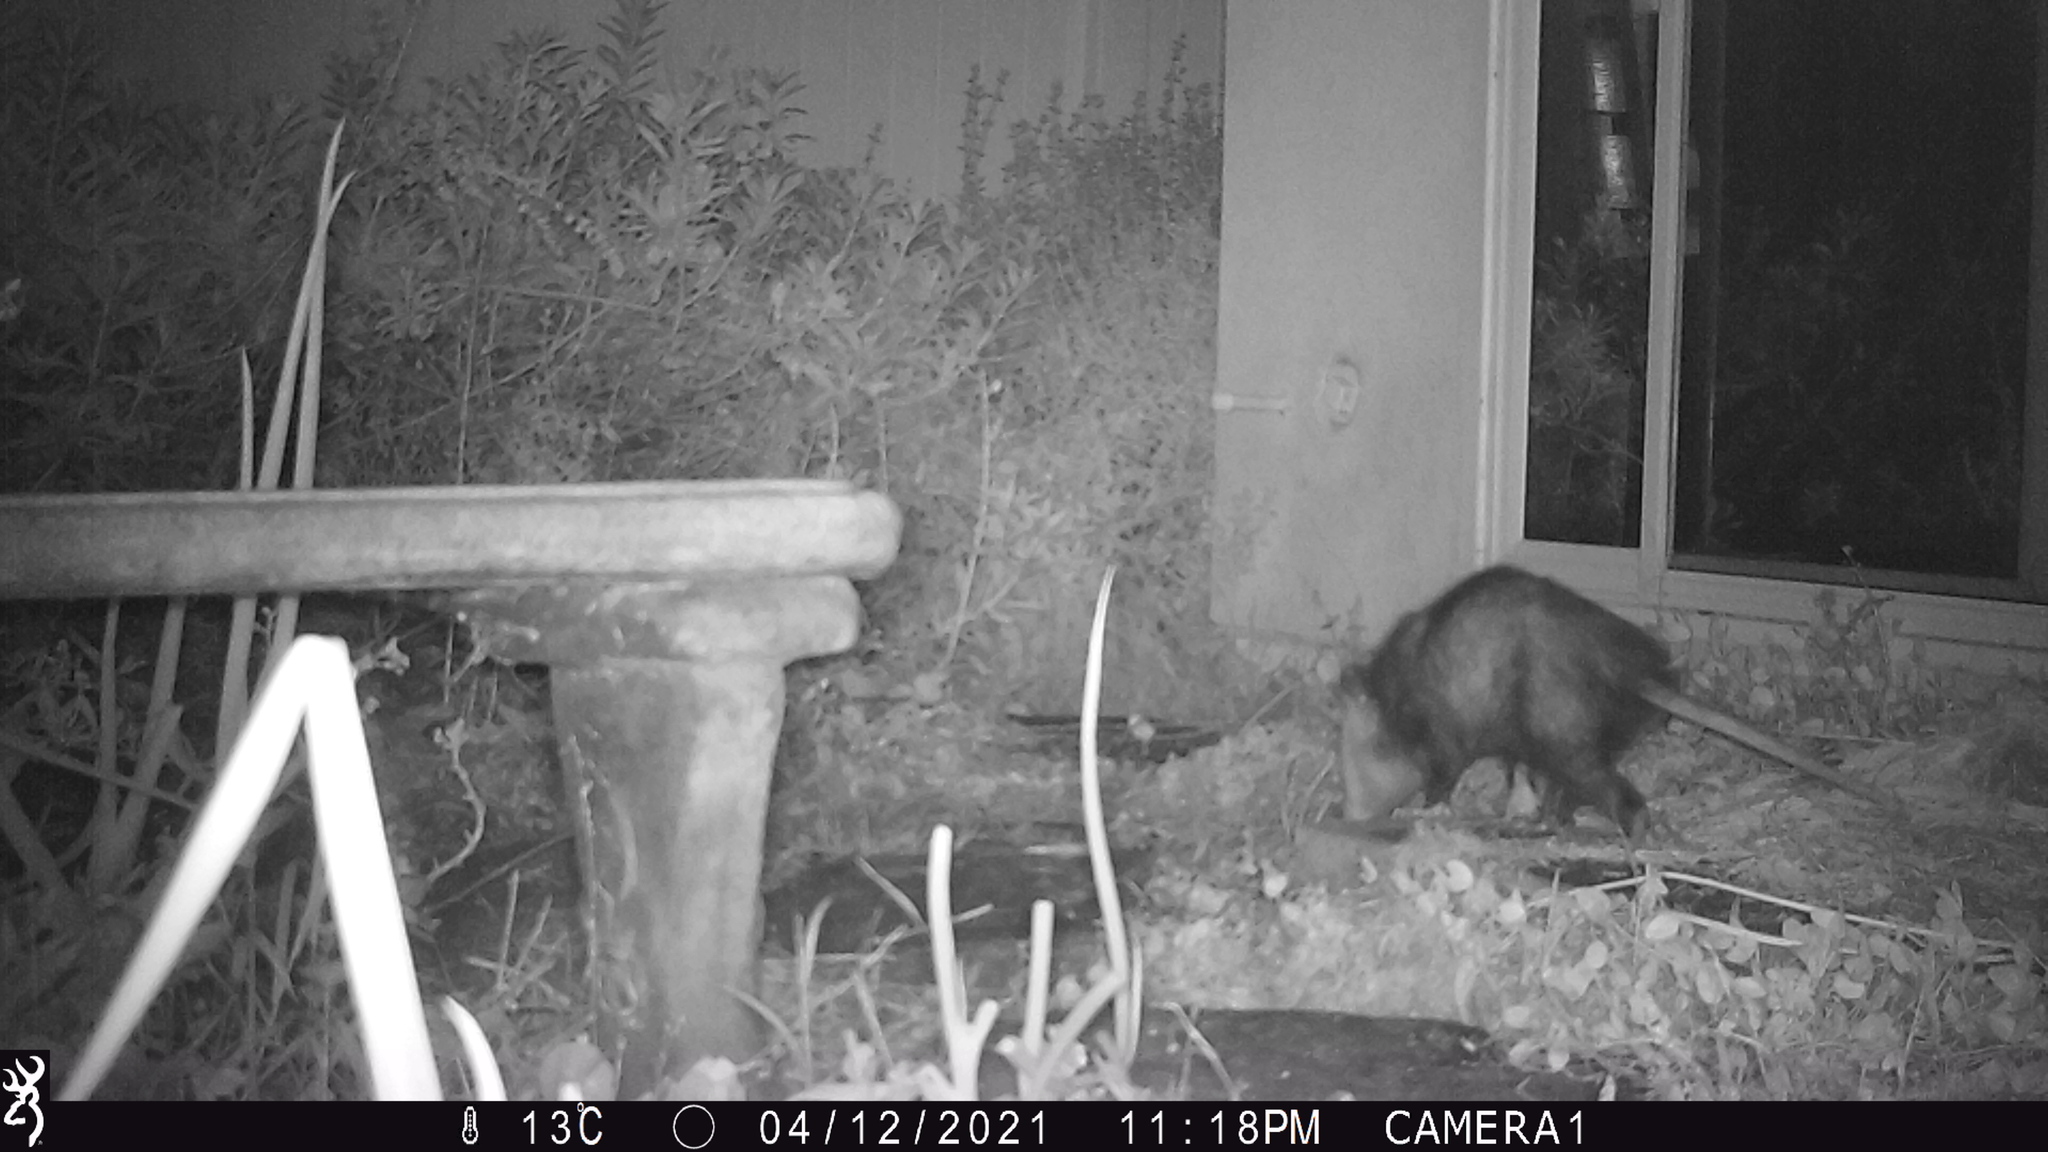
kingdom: Animalia
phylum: Chordata
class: Mammalia
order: Didelphimorphia
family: Didelphidae
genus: Didelphis
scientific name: Didelphis virginiana
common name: Virginia opossum
